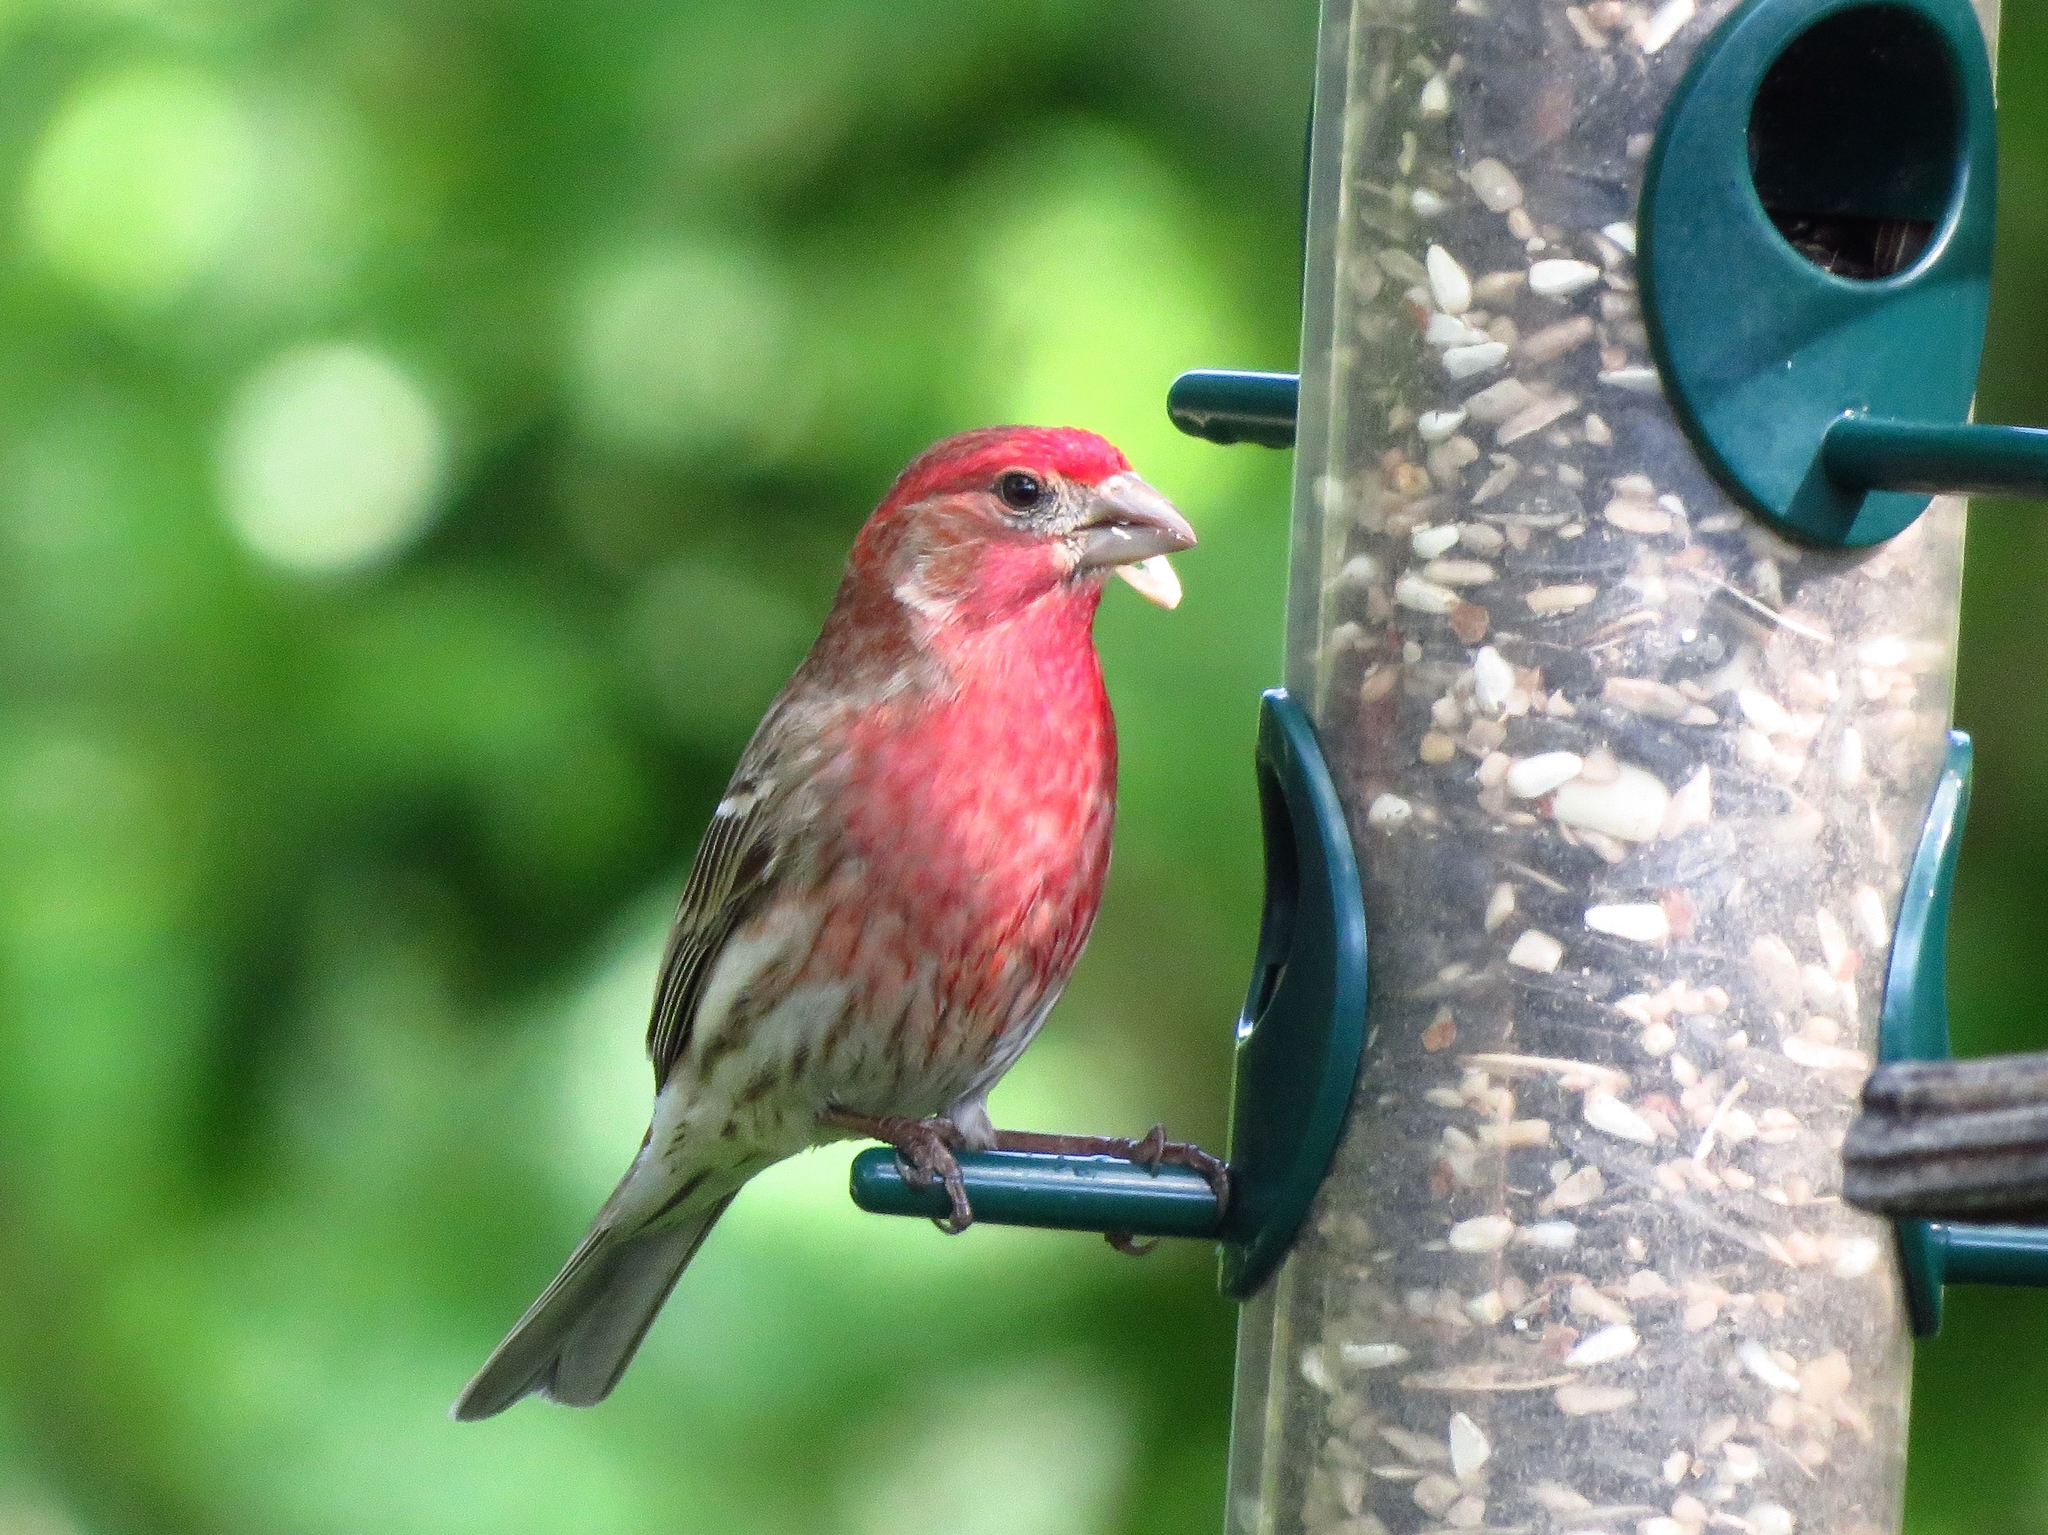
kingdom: Animalia
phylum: Chordata
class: Aves
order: Passeriformes
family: Fringillidae
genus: Haemorhous
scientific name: Haemorhous mexicanus
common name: House finch
